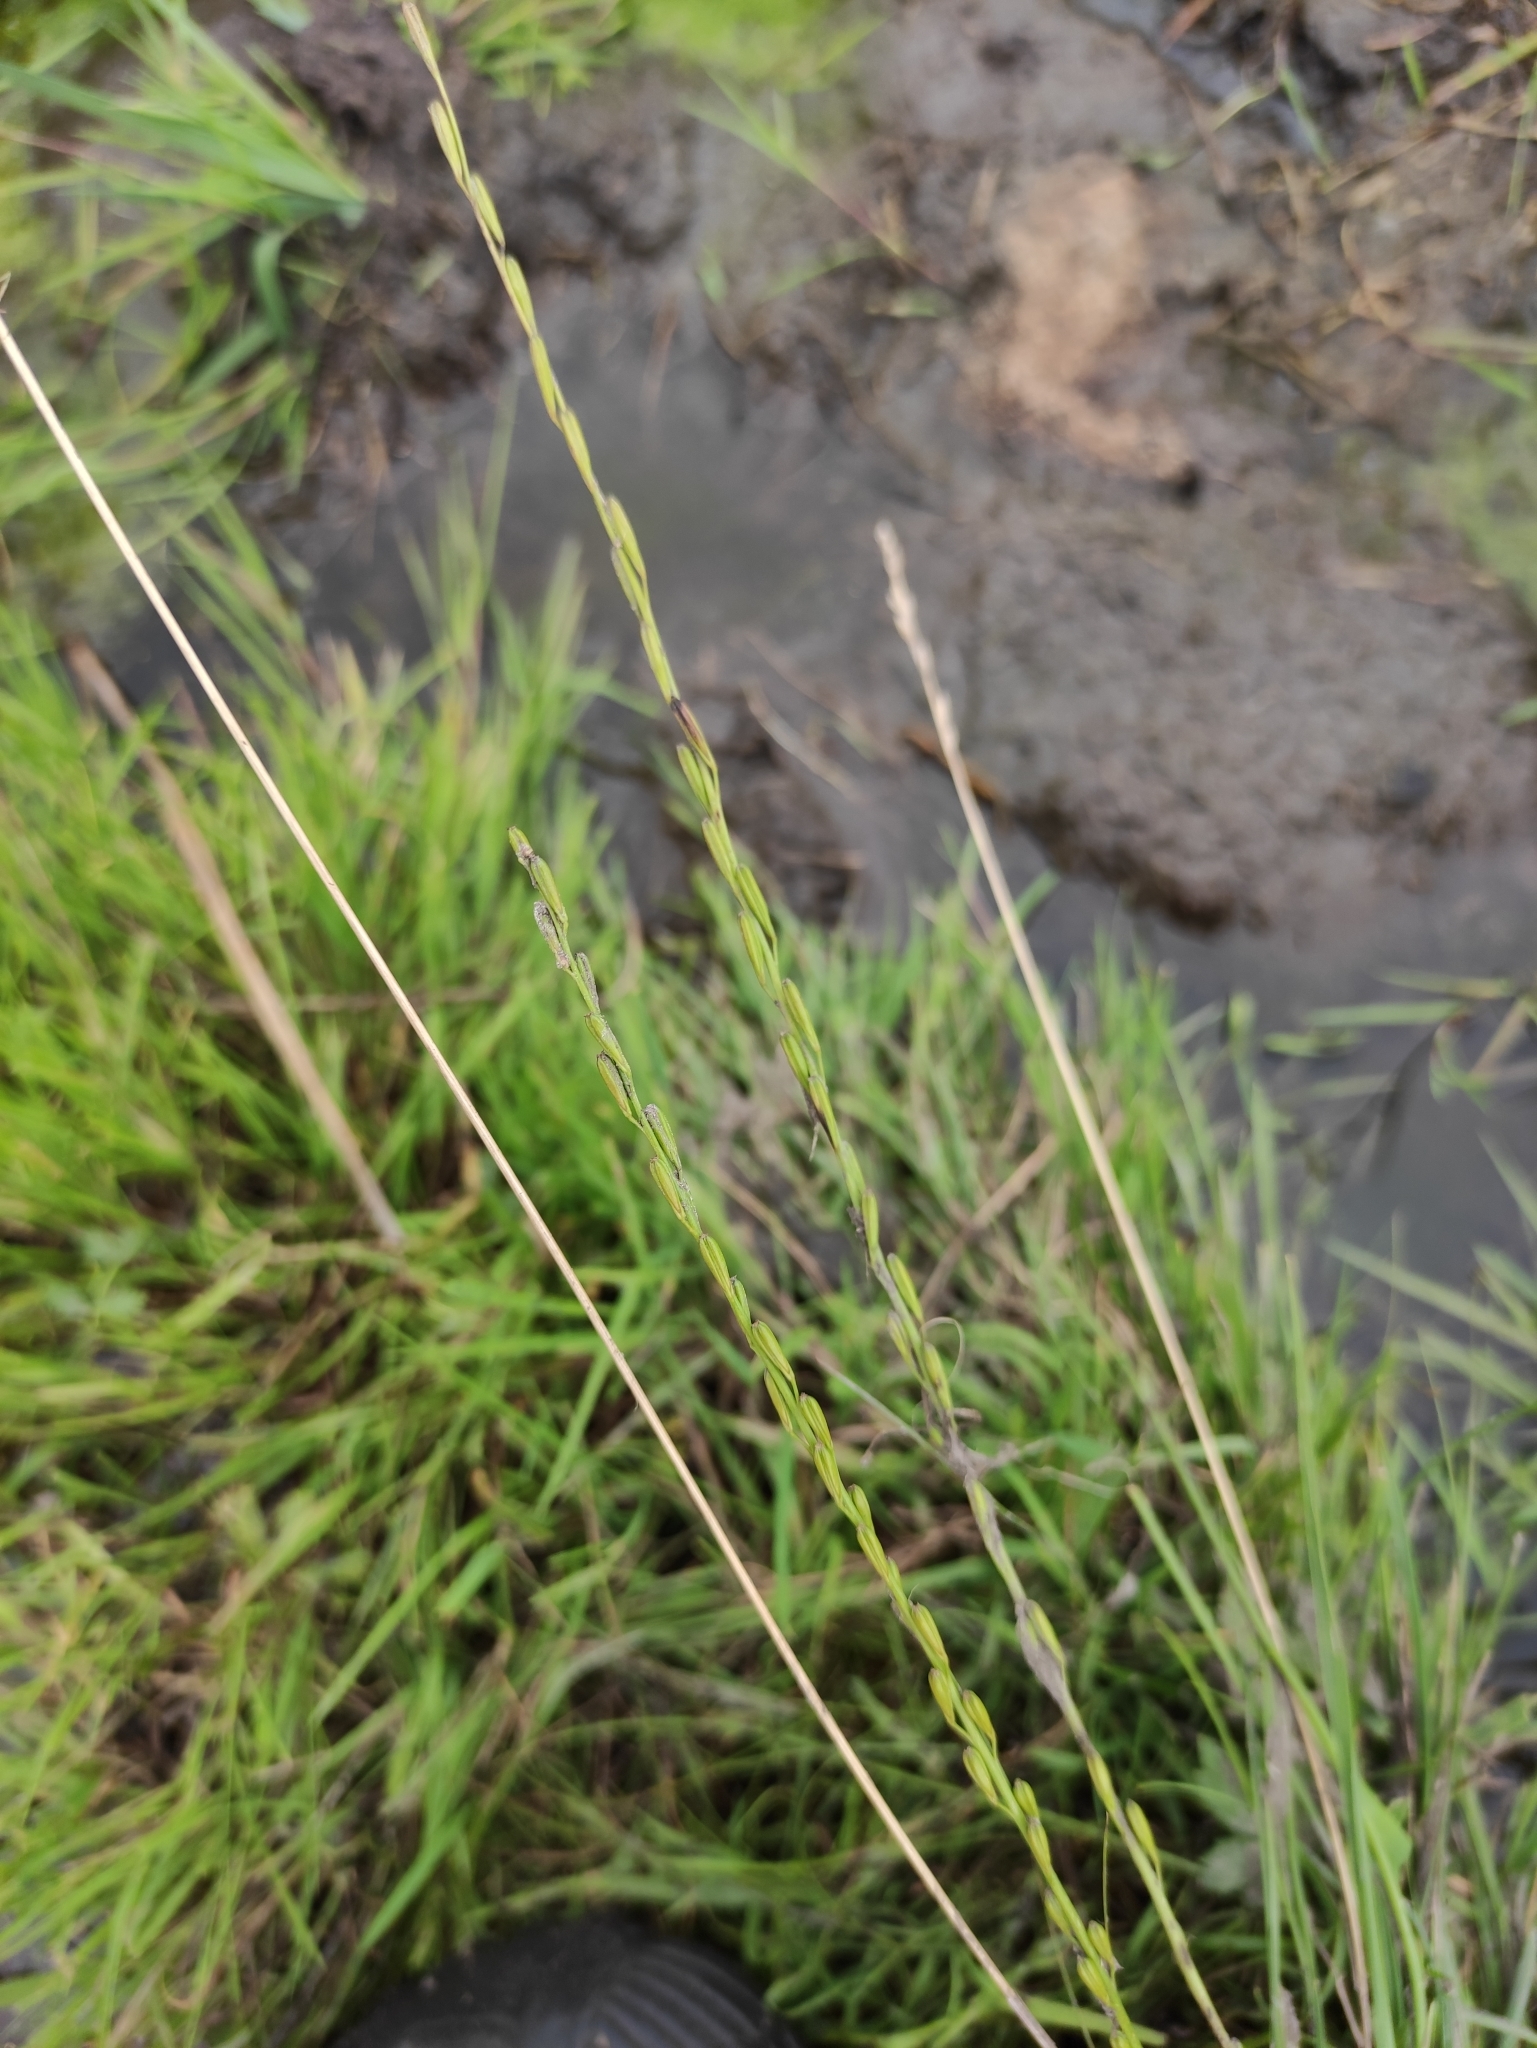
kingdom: Plantae
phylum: Tracheophyta
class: Liliopsida
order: Alismatales
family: Juncaginaceae
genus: Triglochin
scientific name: Triglochin palustris
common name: Marsh arrowgrass
